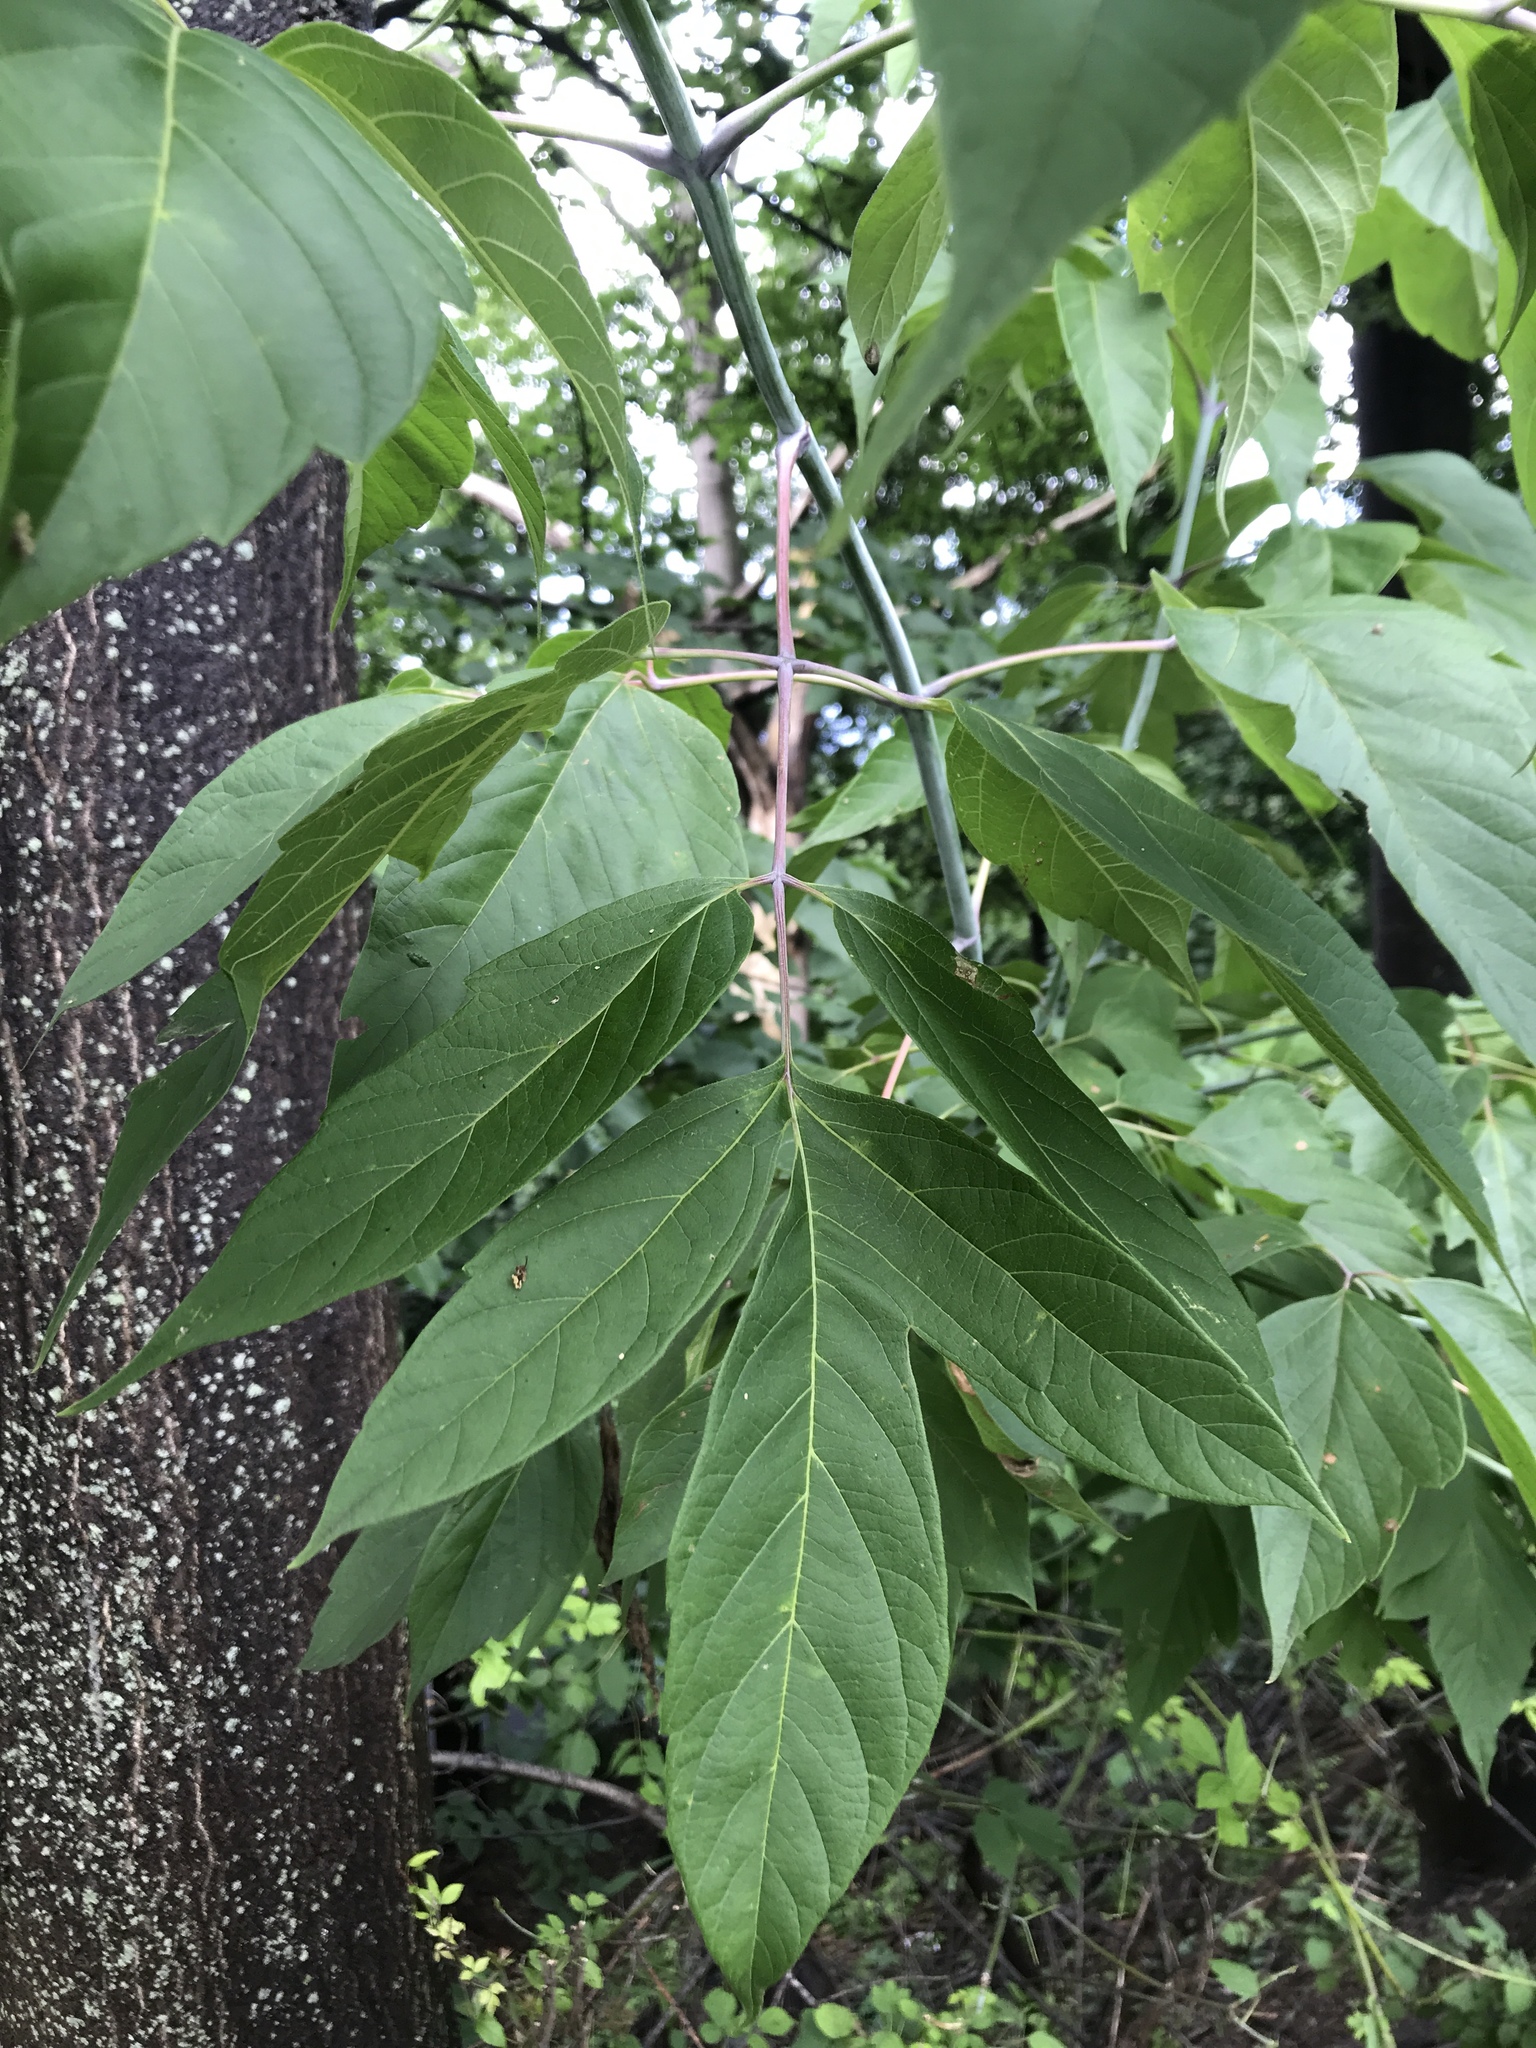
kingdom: Plantae
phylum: Tracheophyta
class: Magnoliopsida
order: Sapindales
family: Sapindaceae
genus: Acer
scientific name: Acer negundo
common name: Ashleaf maple
